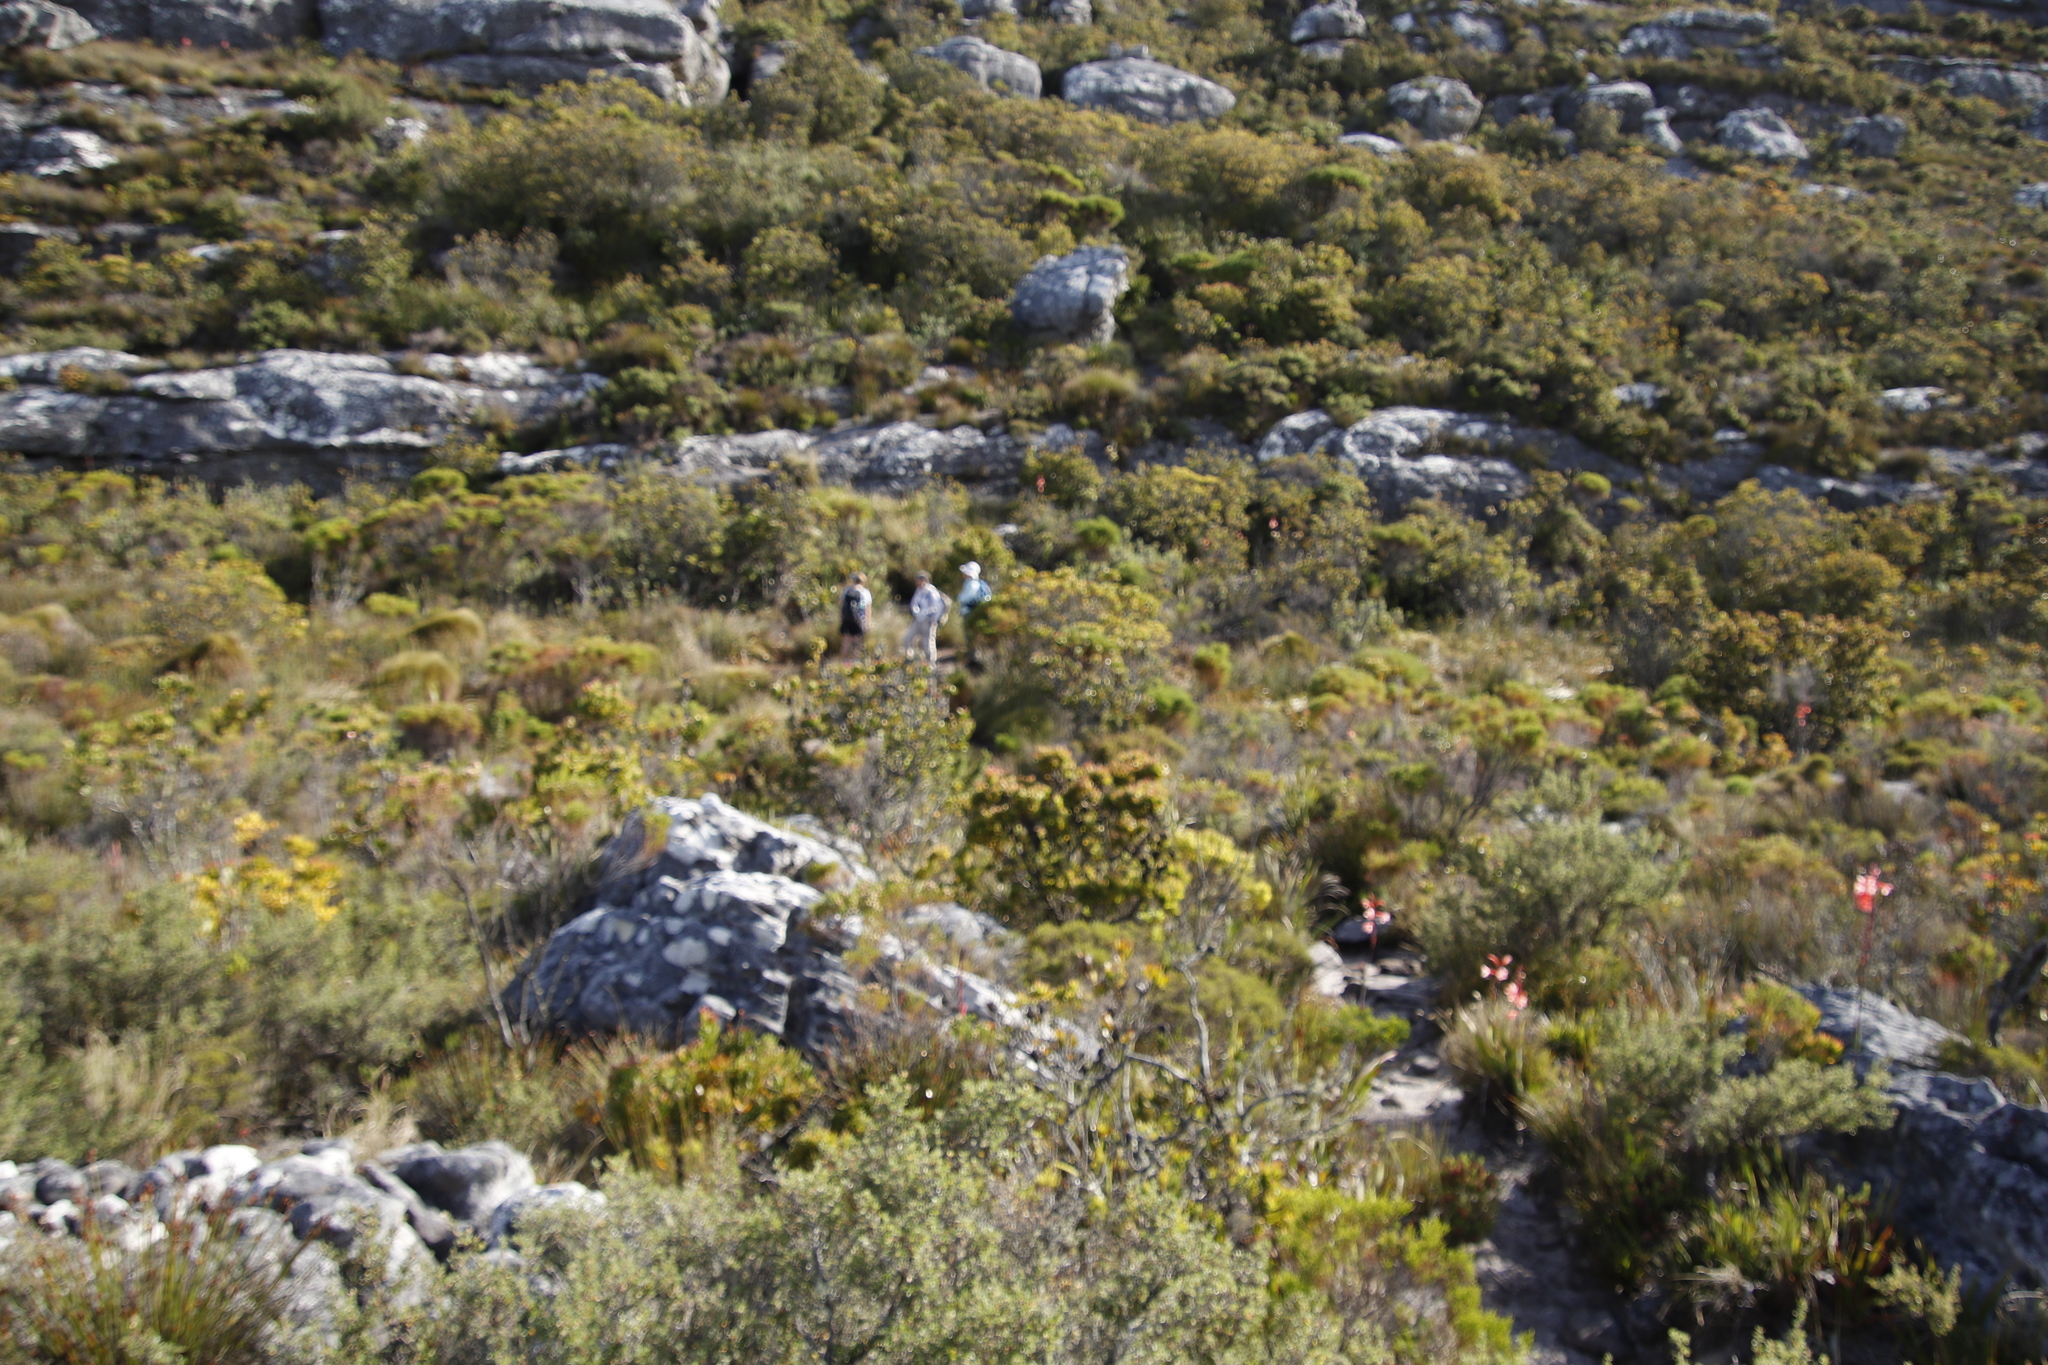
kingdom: Plantae
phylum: Tracheophyta
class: Magnoliopsida
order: Proteales
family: Proteaceae
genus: Leucadendron
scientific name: Leucadendron strobilinum
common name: Mountain rose
